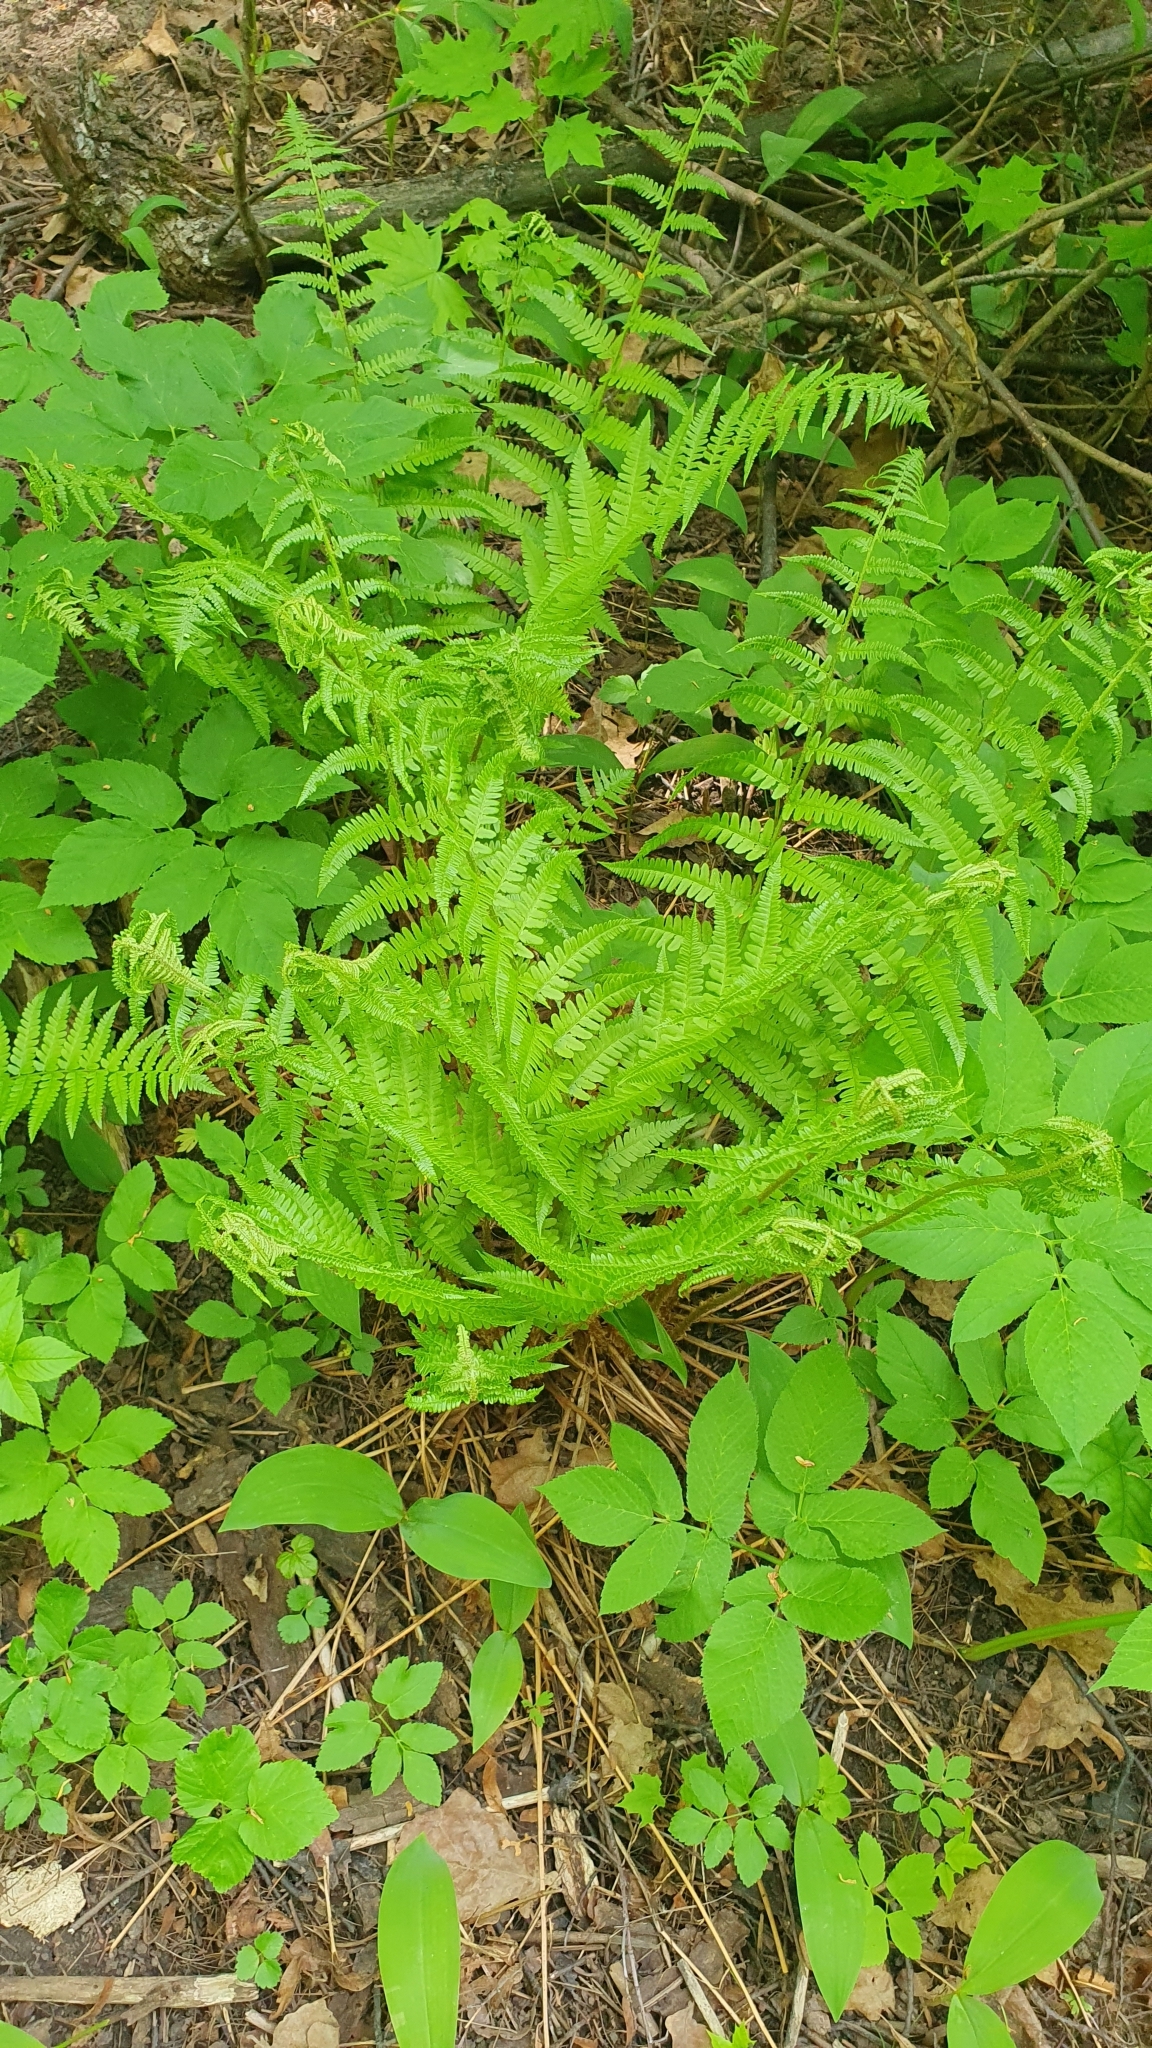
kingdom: Plantae
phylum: Tracheophyta
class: Polypodiopsida
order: Polypodiales
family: Dryopteridaceae
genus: Dryopteris
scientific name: Dryopteris filix-mas
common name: Male fern
